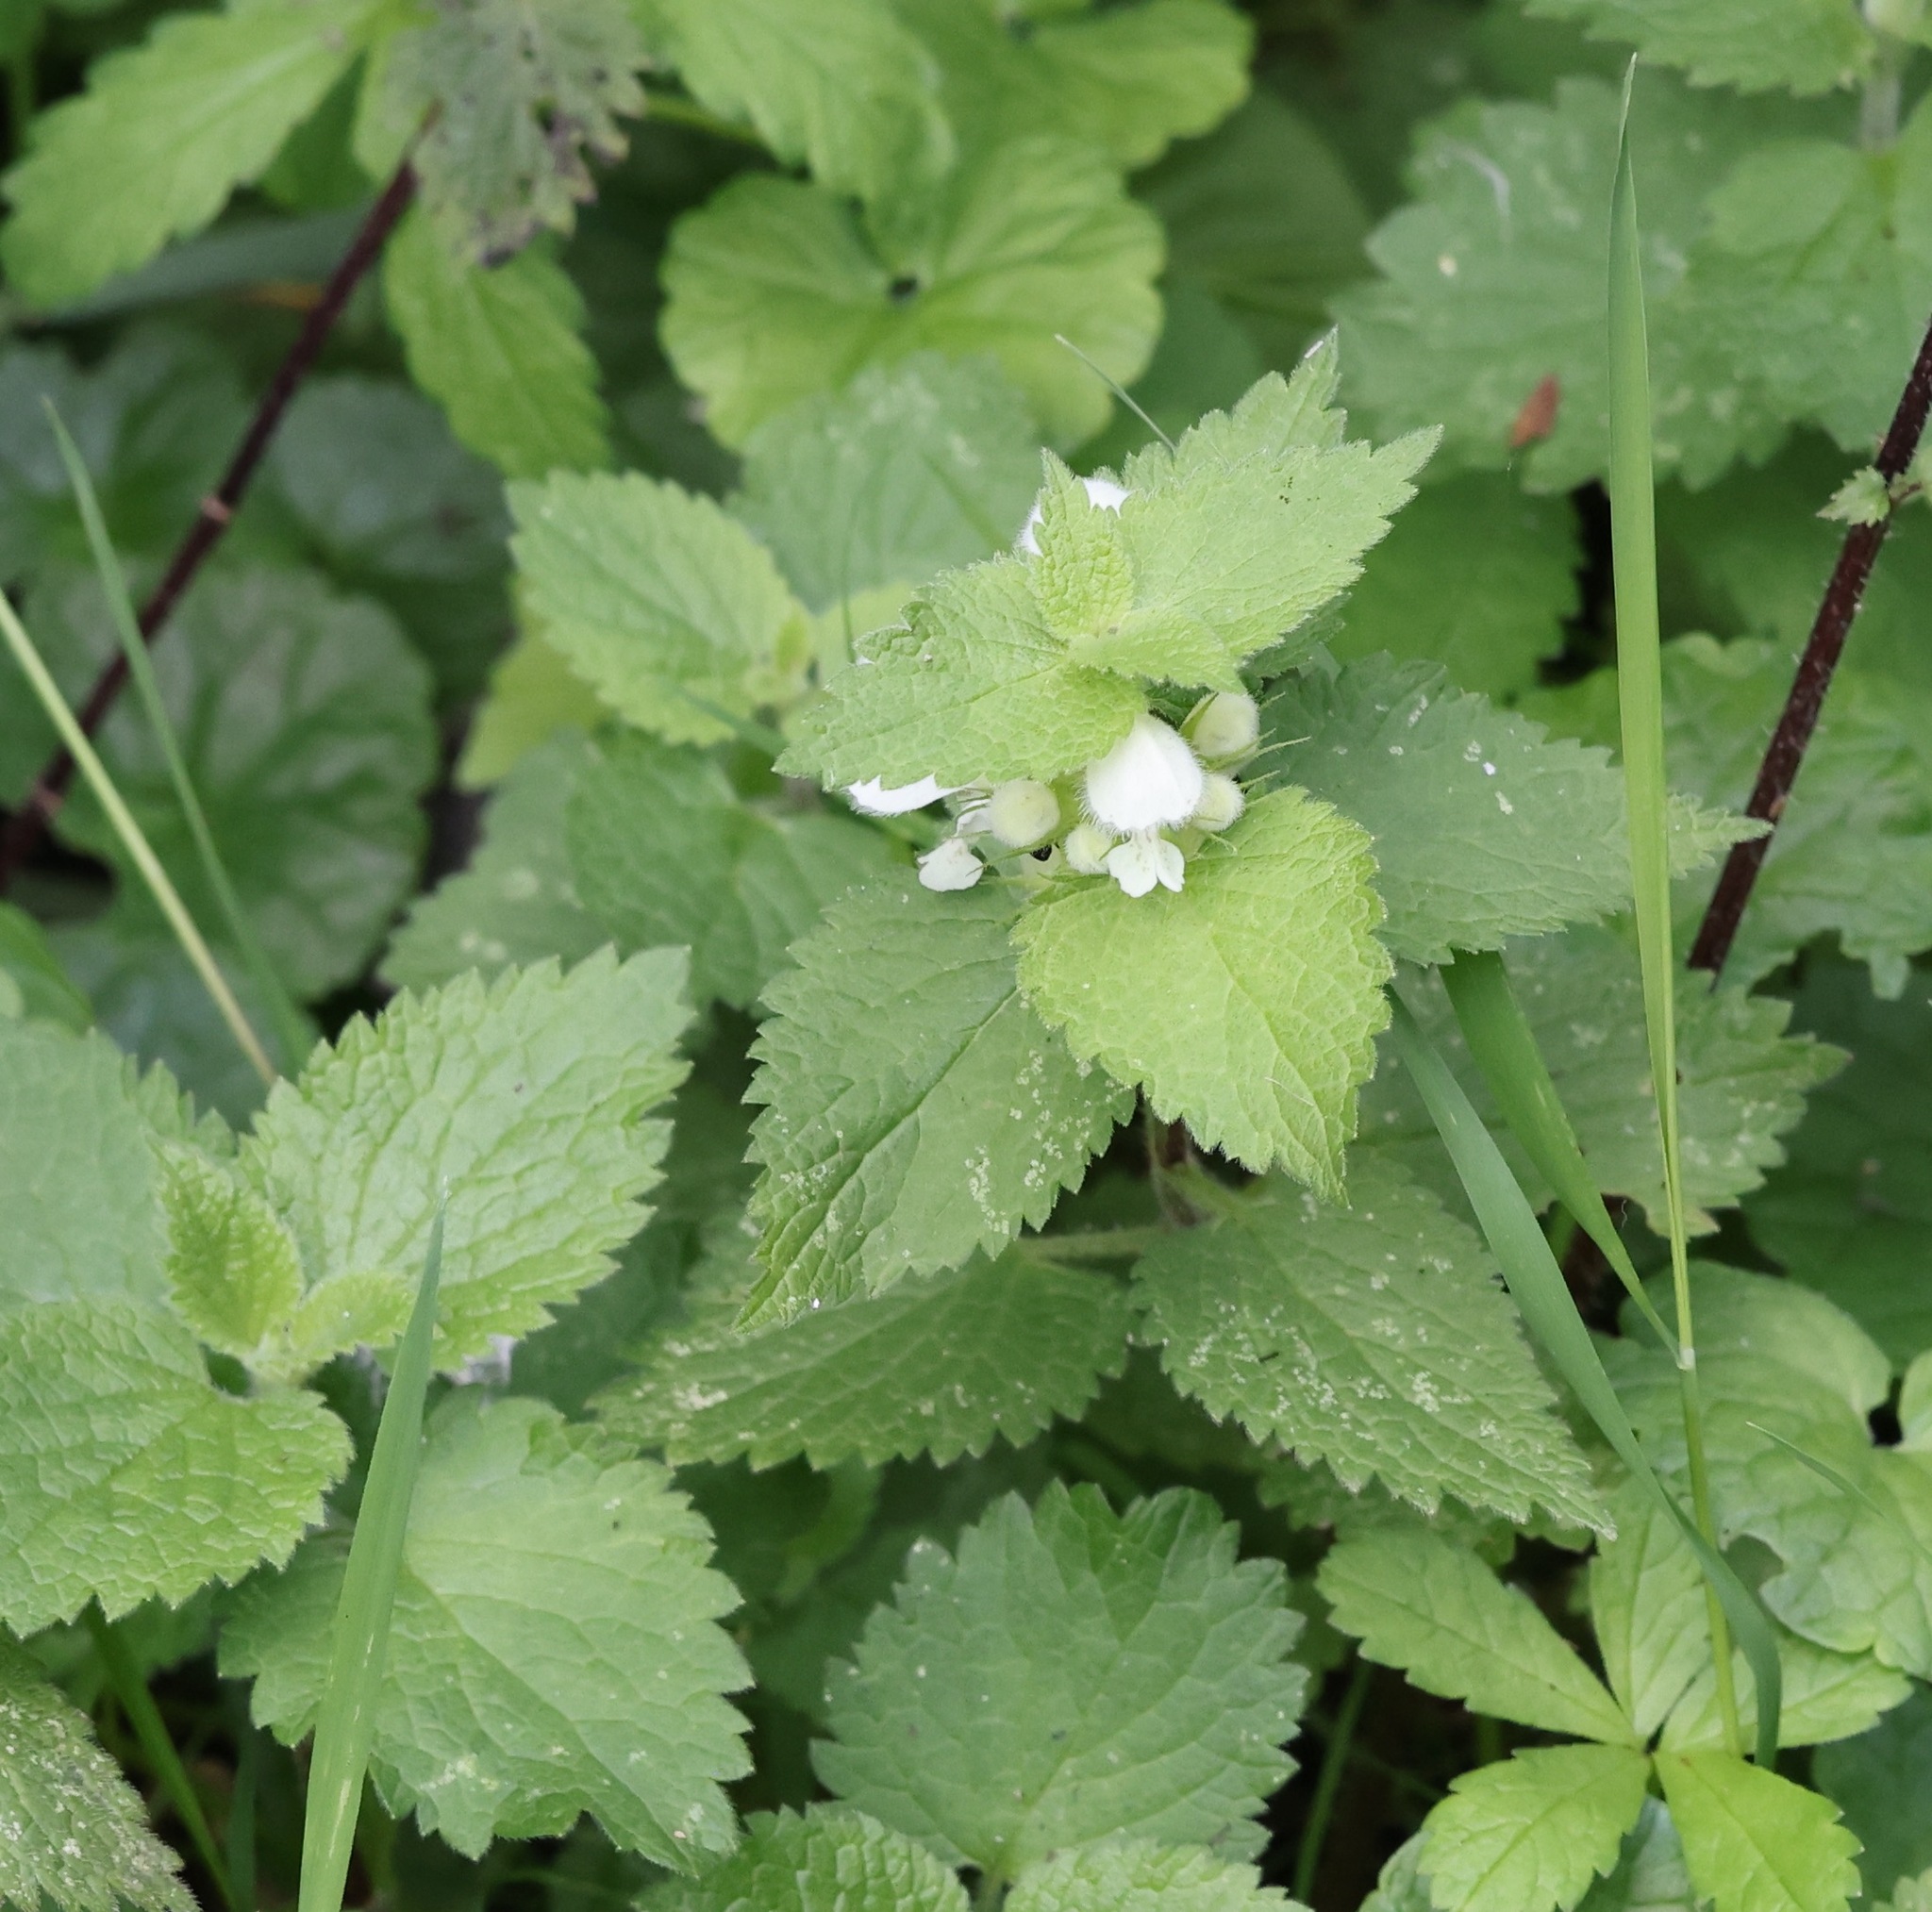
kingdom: Plantae
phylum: Tracheophyta
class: Magnoliopsida
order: Lamiales
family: Lamiaceae
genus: Lamium
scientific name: Lamium album
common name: White dead-nettle
